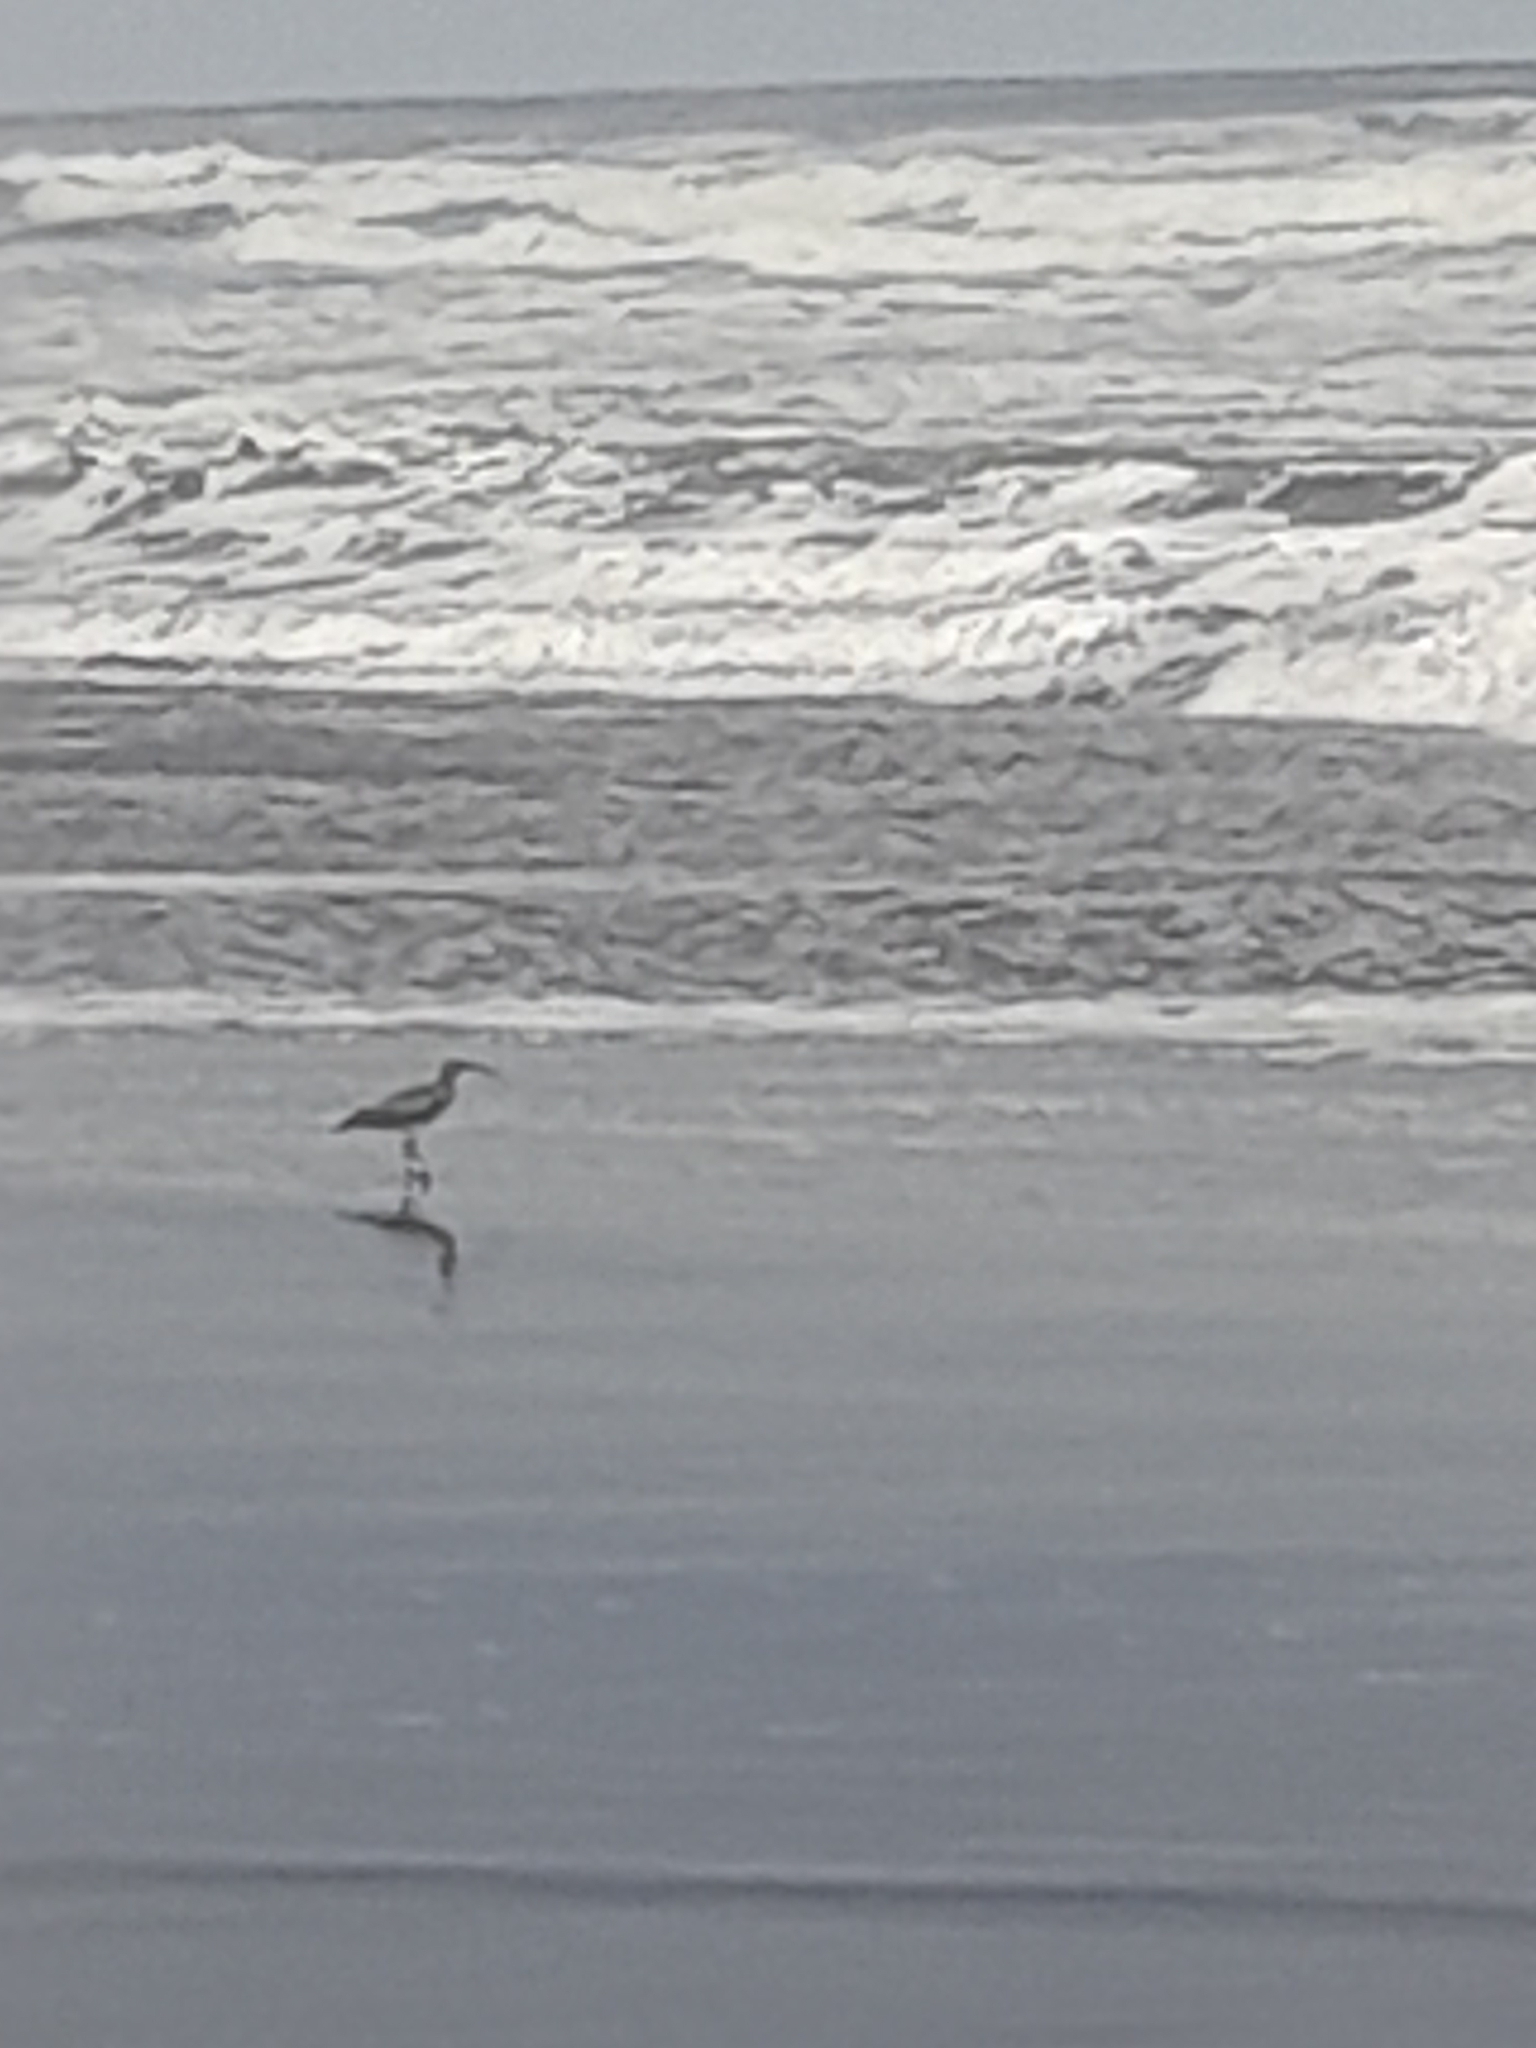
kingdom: Animalia
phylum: Chordata
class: Aves
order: Charadriiformes
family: Scolopacidae
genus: Numenius
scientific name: Numenius phaeopus
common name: Whimbrel
